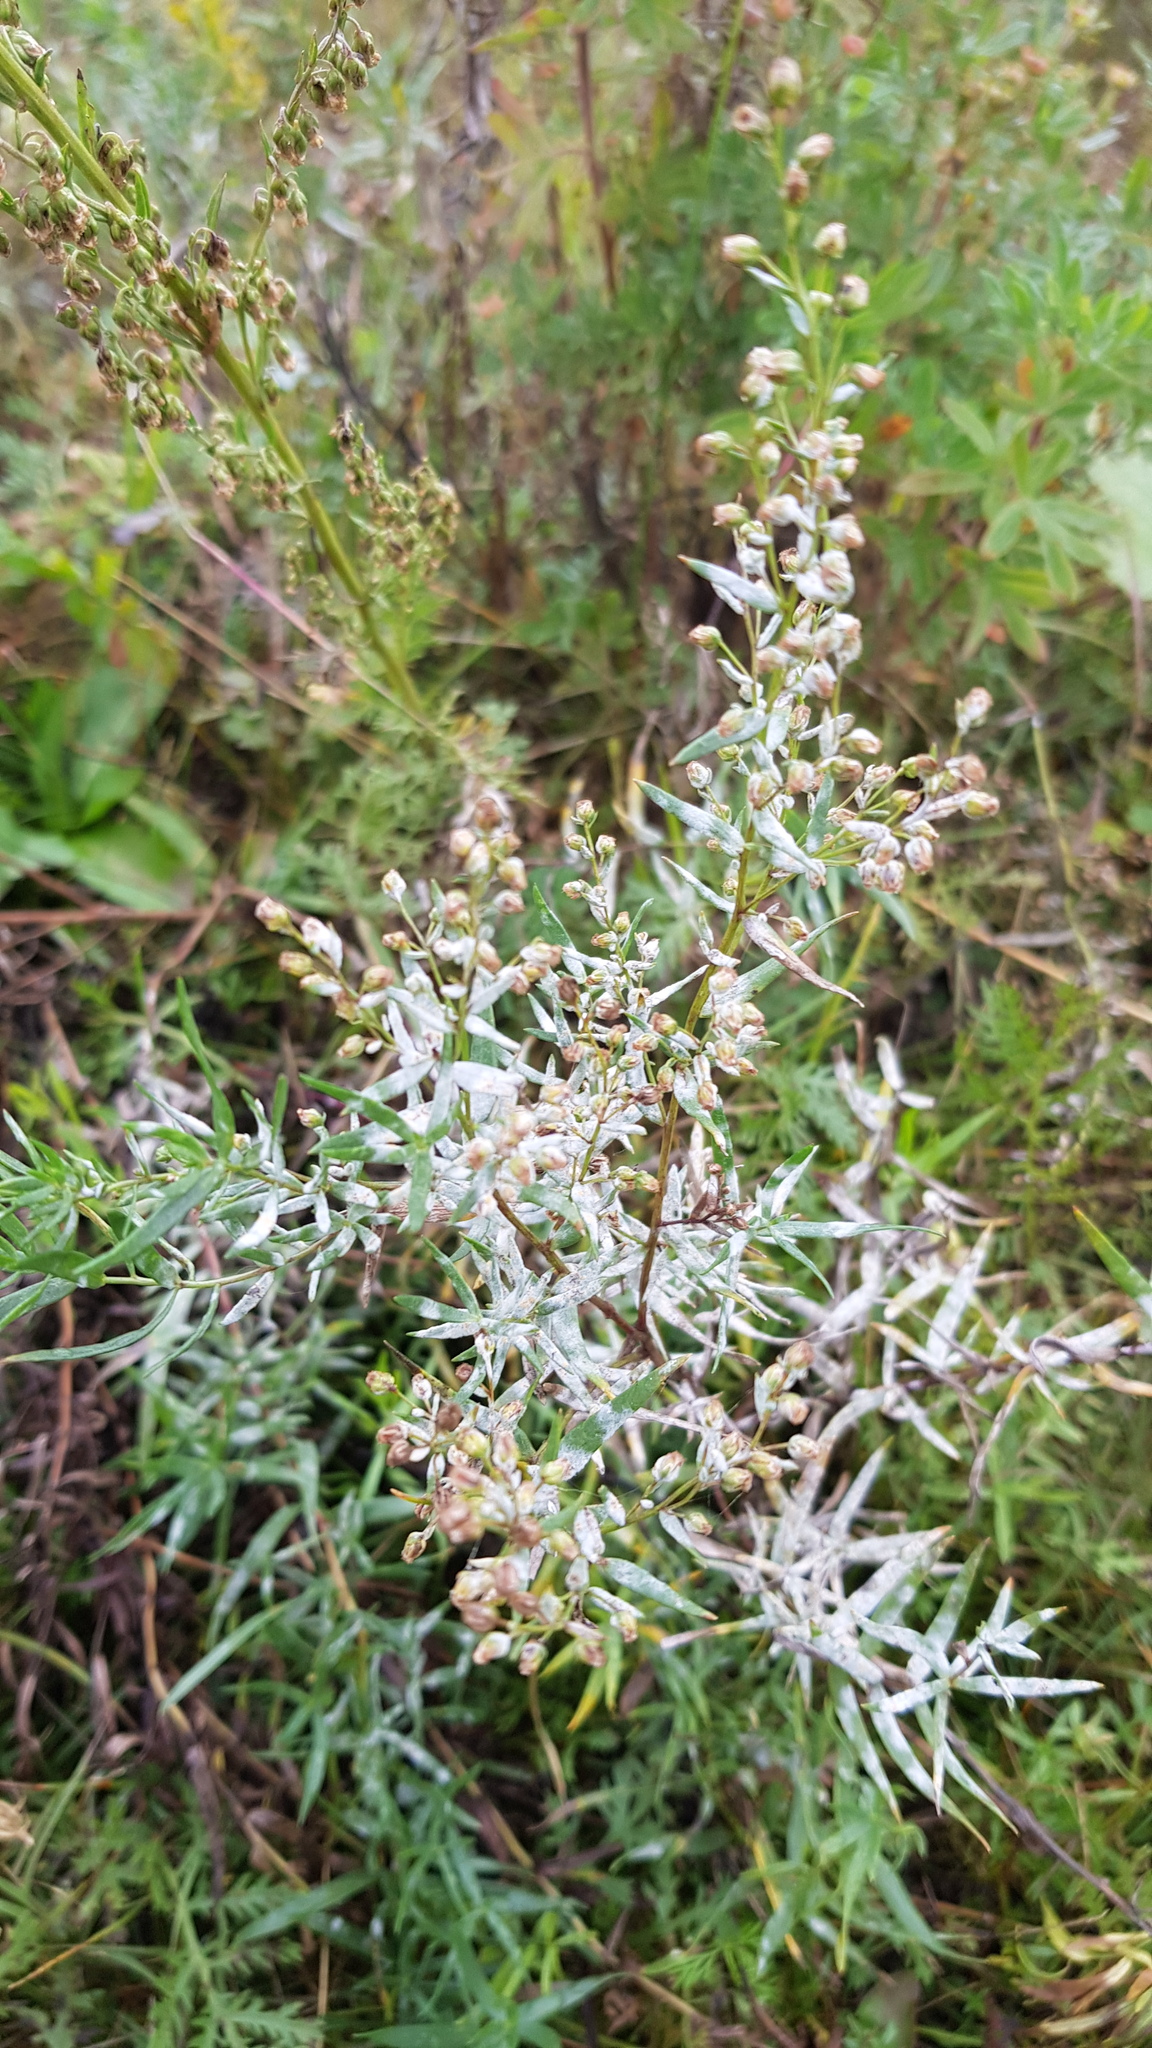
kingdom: Plantae
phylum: Tracheophyta
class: Magnoliopsida
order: Asterales
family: Asteraceae
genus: Artemisia
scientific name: Artemisia vulgaris
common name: Mugwort
